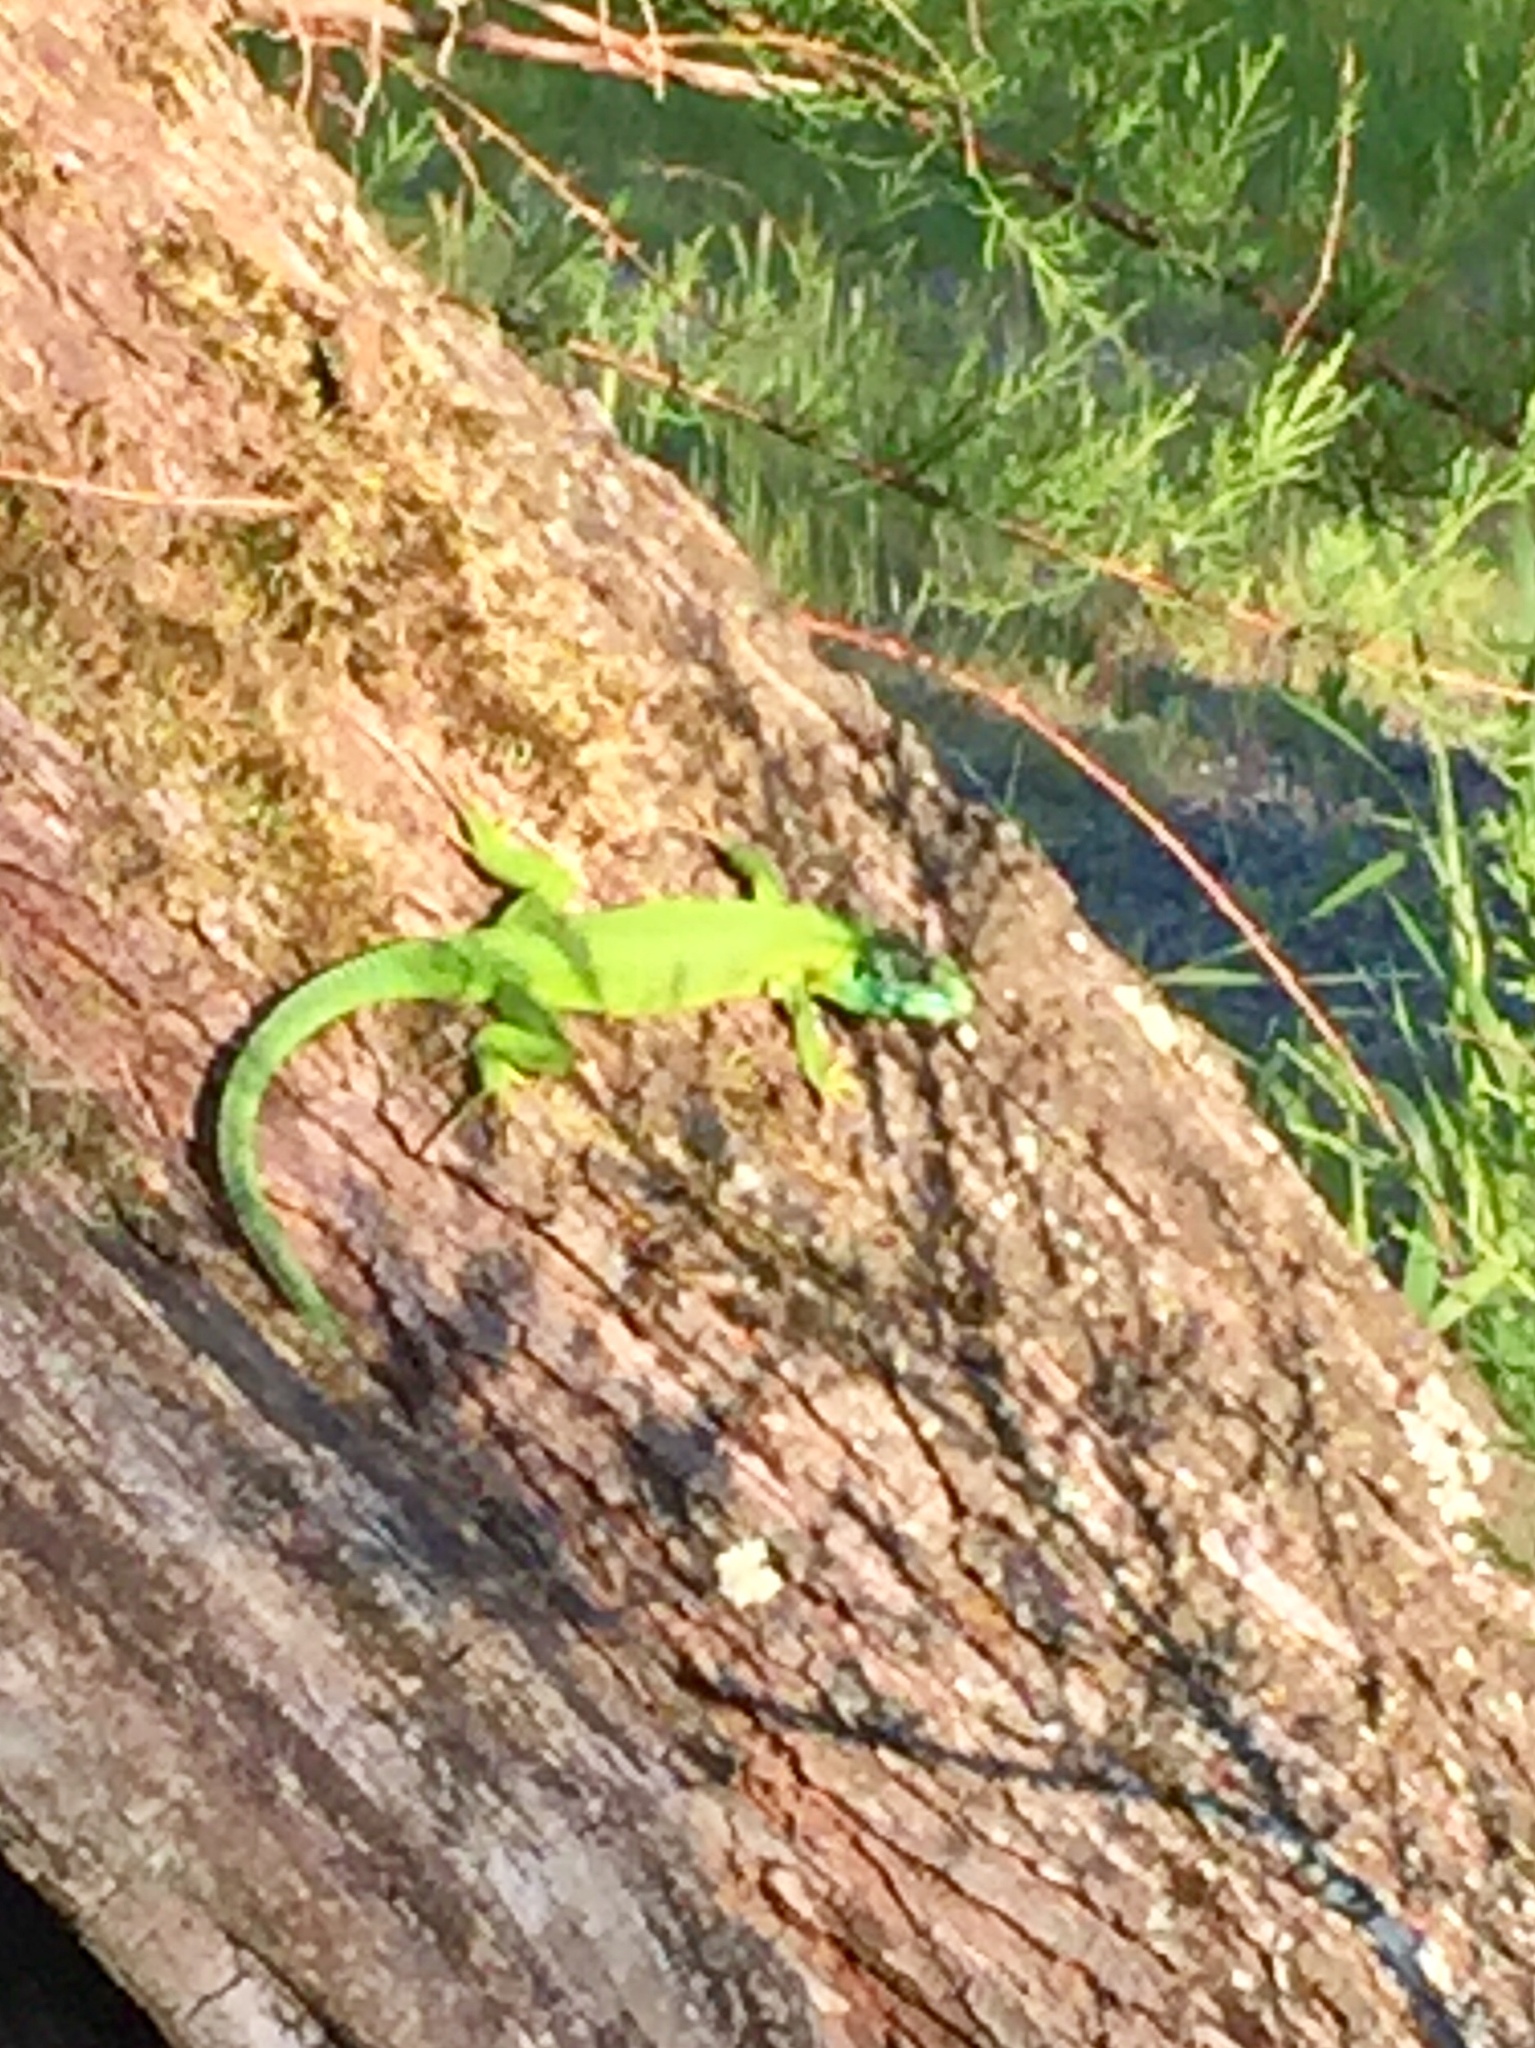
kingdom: Animalia
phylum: Chordata
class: Squamata
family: Lacertidae
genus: Lacerta
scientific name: Lacerta bilineata
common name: Western green lizard
